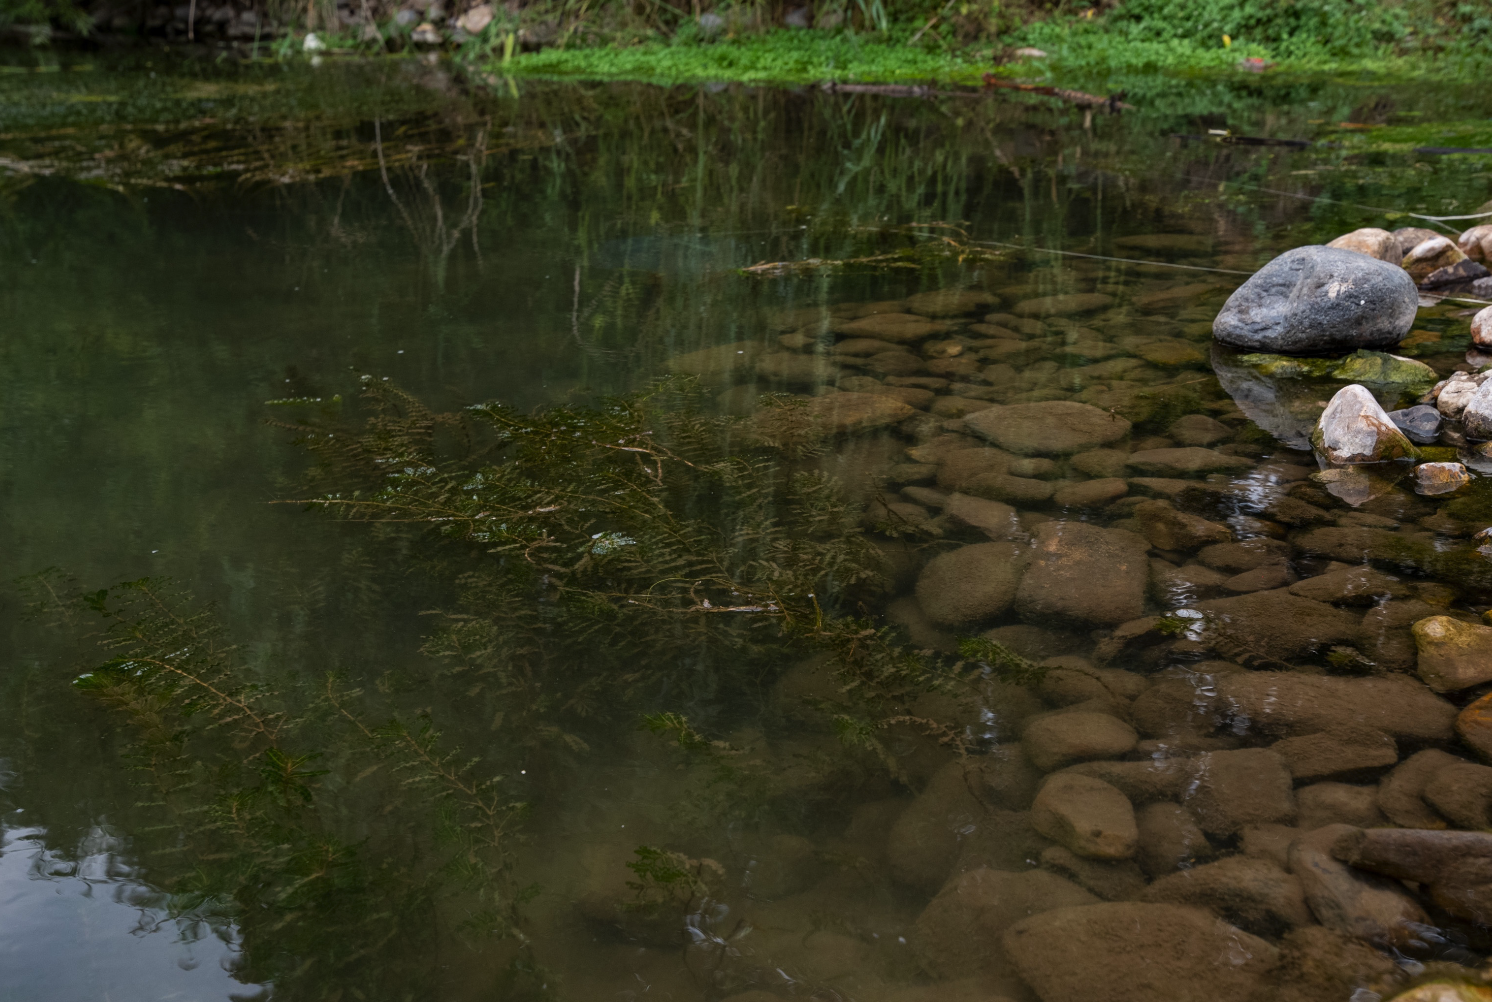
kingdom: Plantae
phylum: Tracheophyta
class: Liliopsida
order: Alismatales
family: Potamogetonaceae
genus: Potamogeton
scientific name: Potamogeton crispus
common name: Curled pondweed
